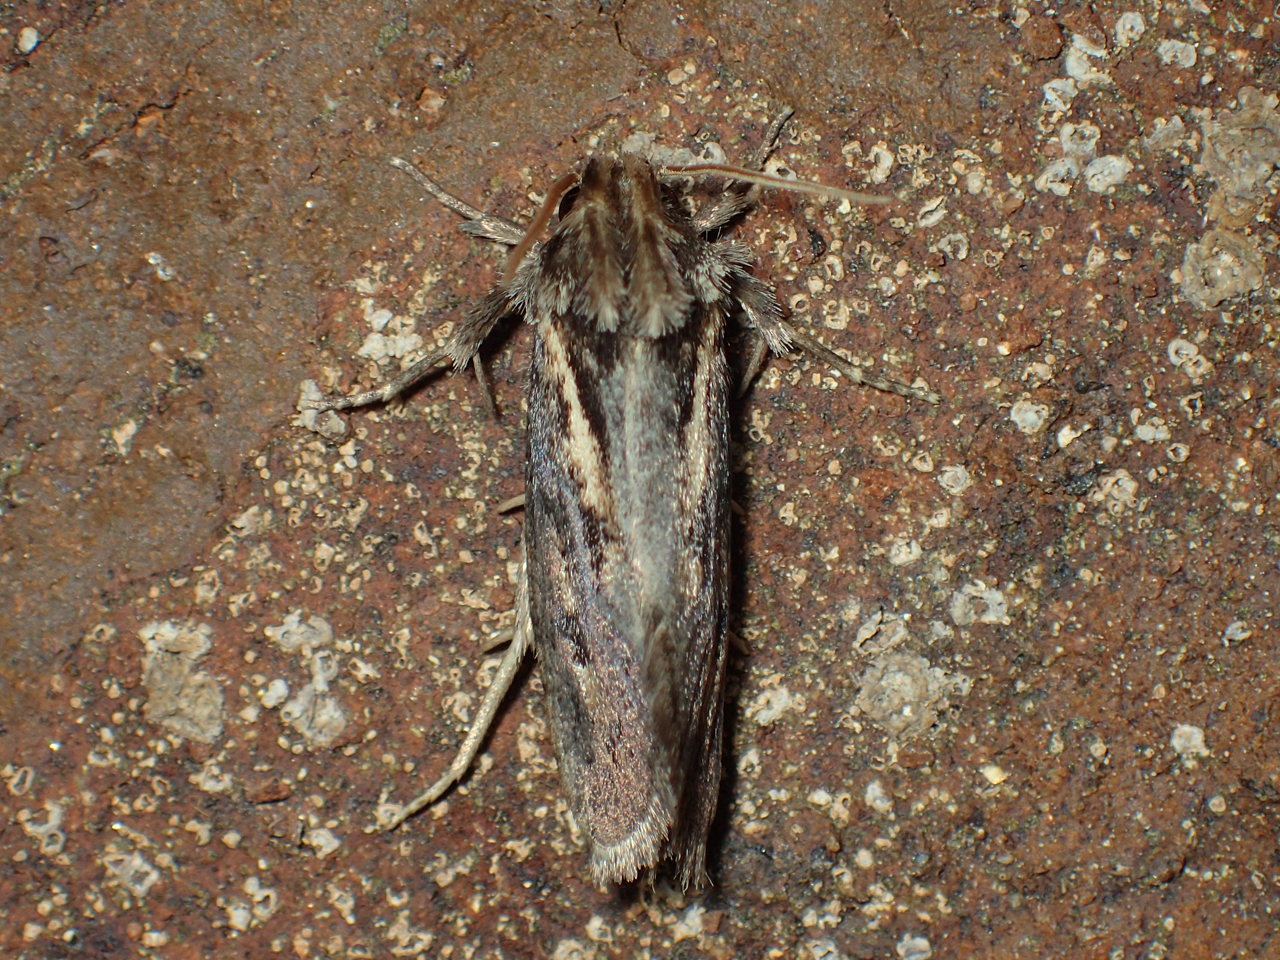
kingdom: Animalia
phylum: Arthropoda
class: Insecta
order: Lepidoptera
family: Tineidae
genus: Acrolophus
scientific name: Acrolophus popeanella
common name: Clemens' grass tubeworm moth
